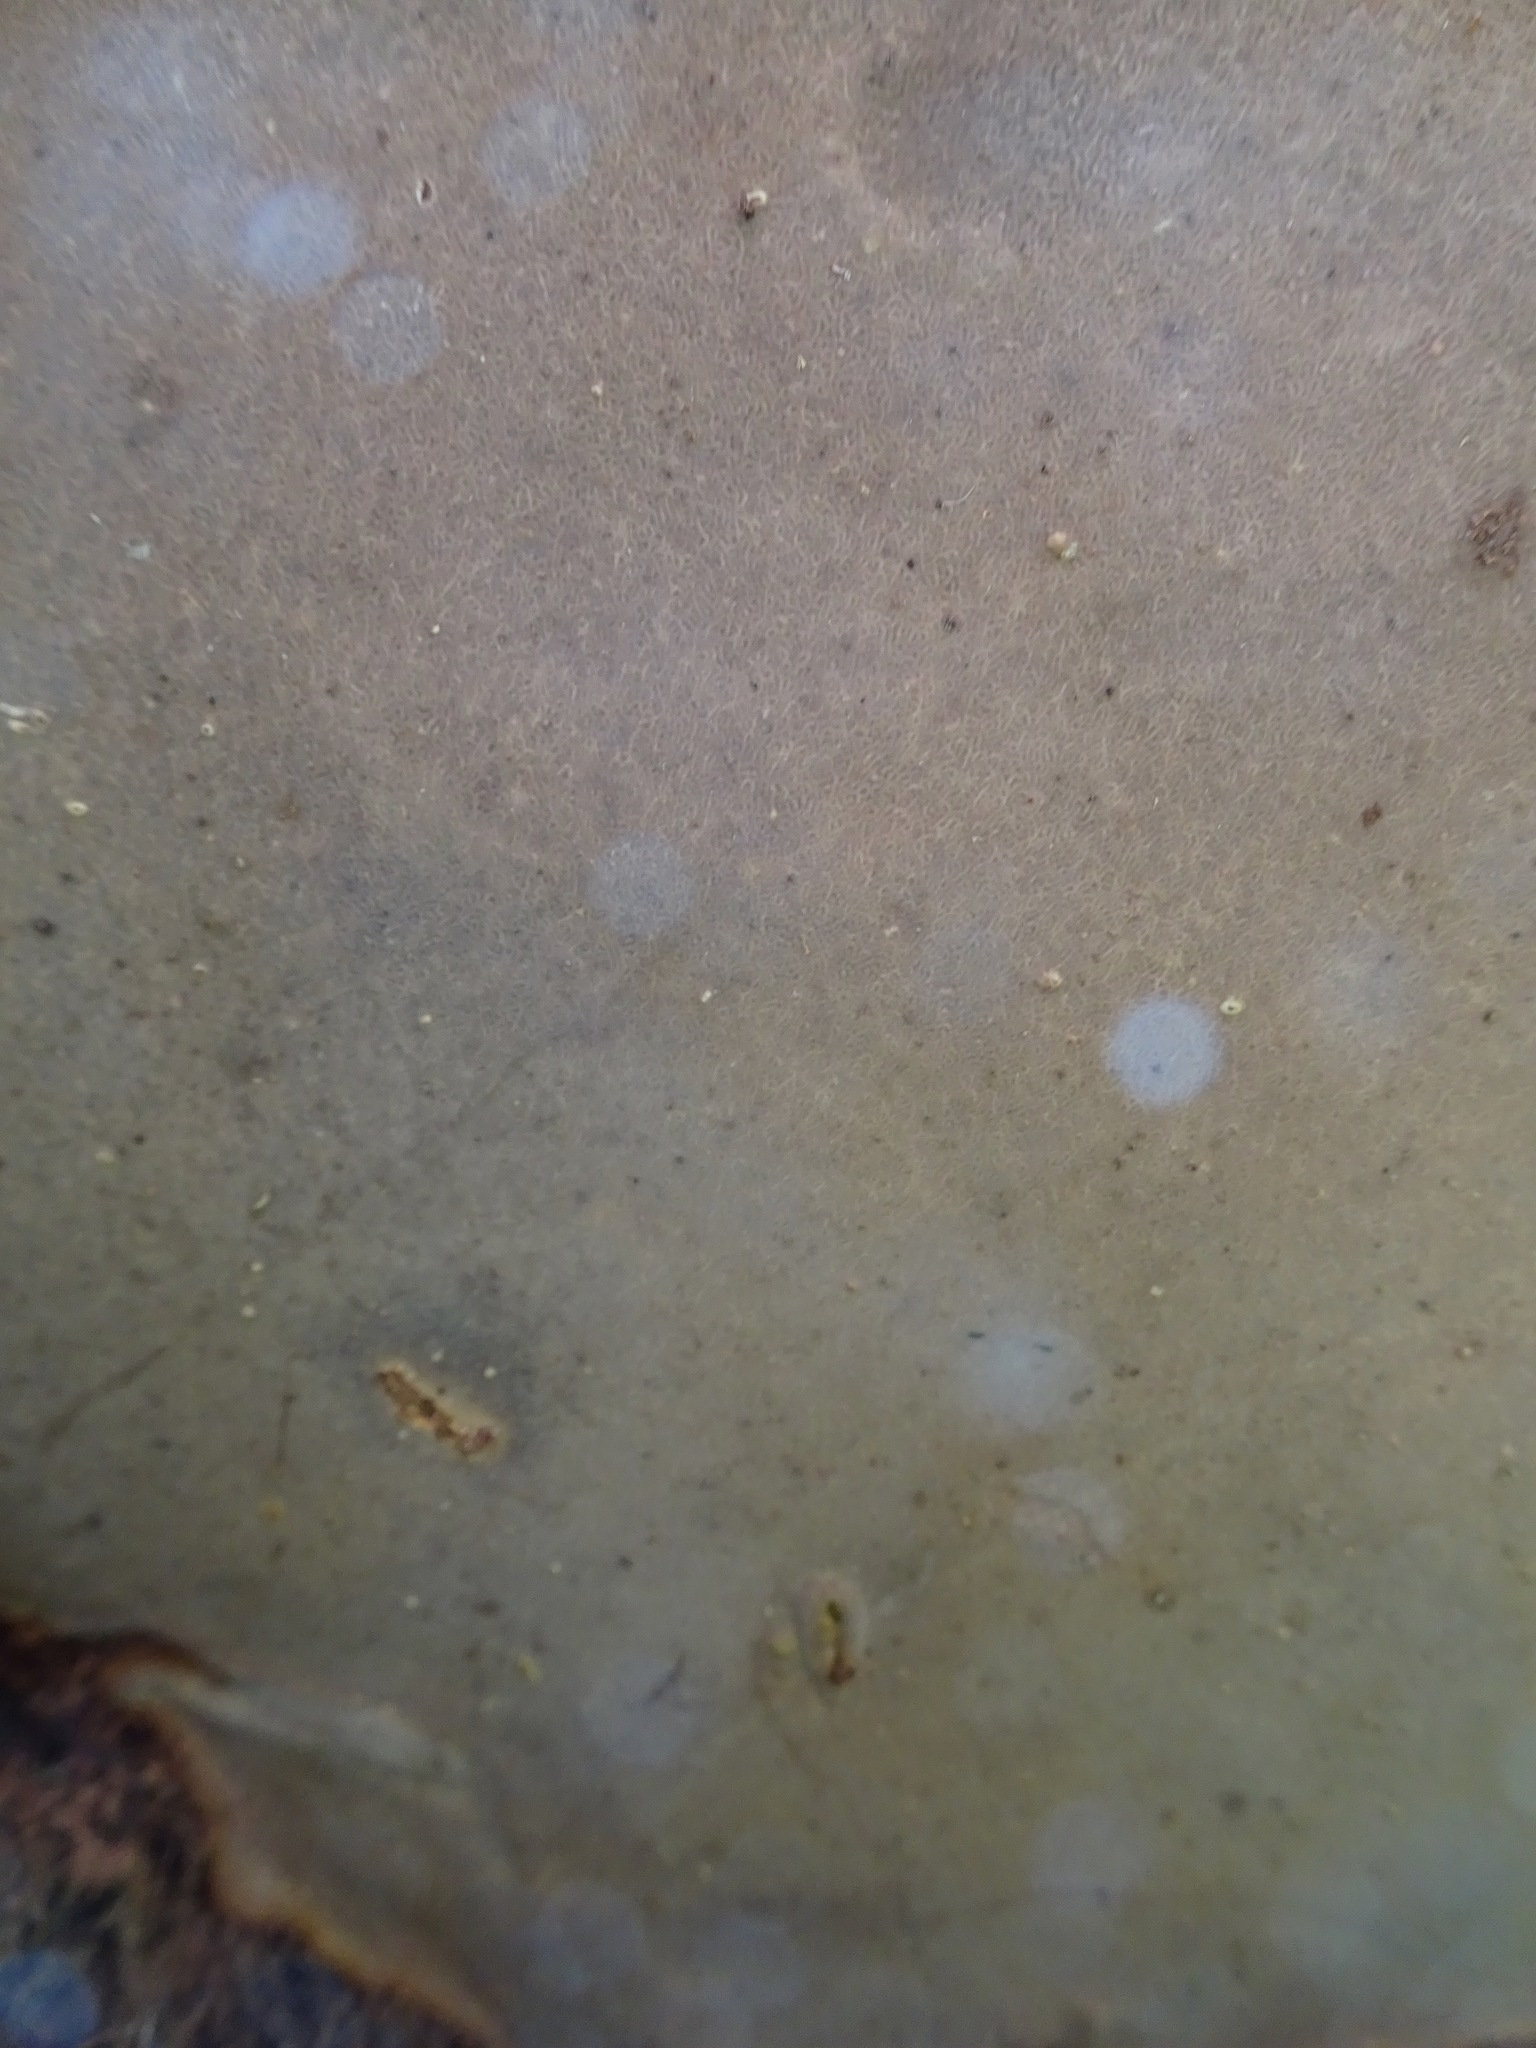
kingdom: Fungi
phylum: Basidiomycota
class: Agaricomycetes
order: Polyporales
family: Fomitopsidaceae
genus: Fomitopsis
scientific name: Fomitopsis pinicola
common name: Red-belted bracket
